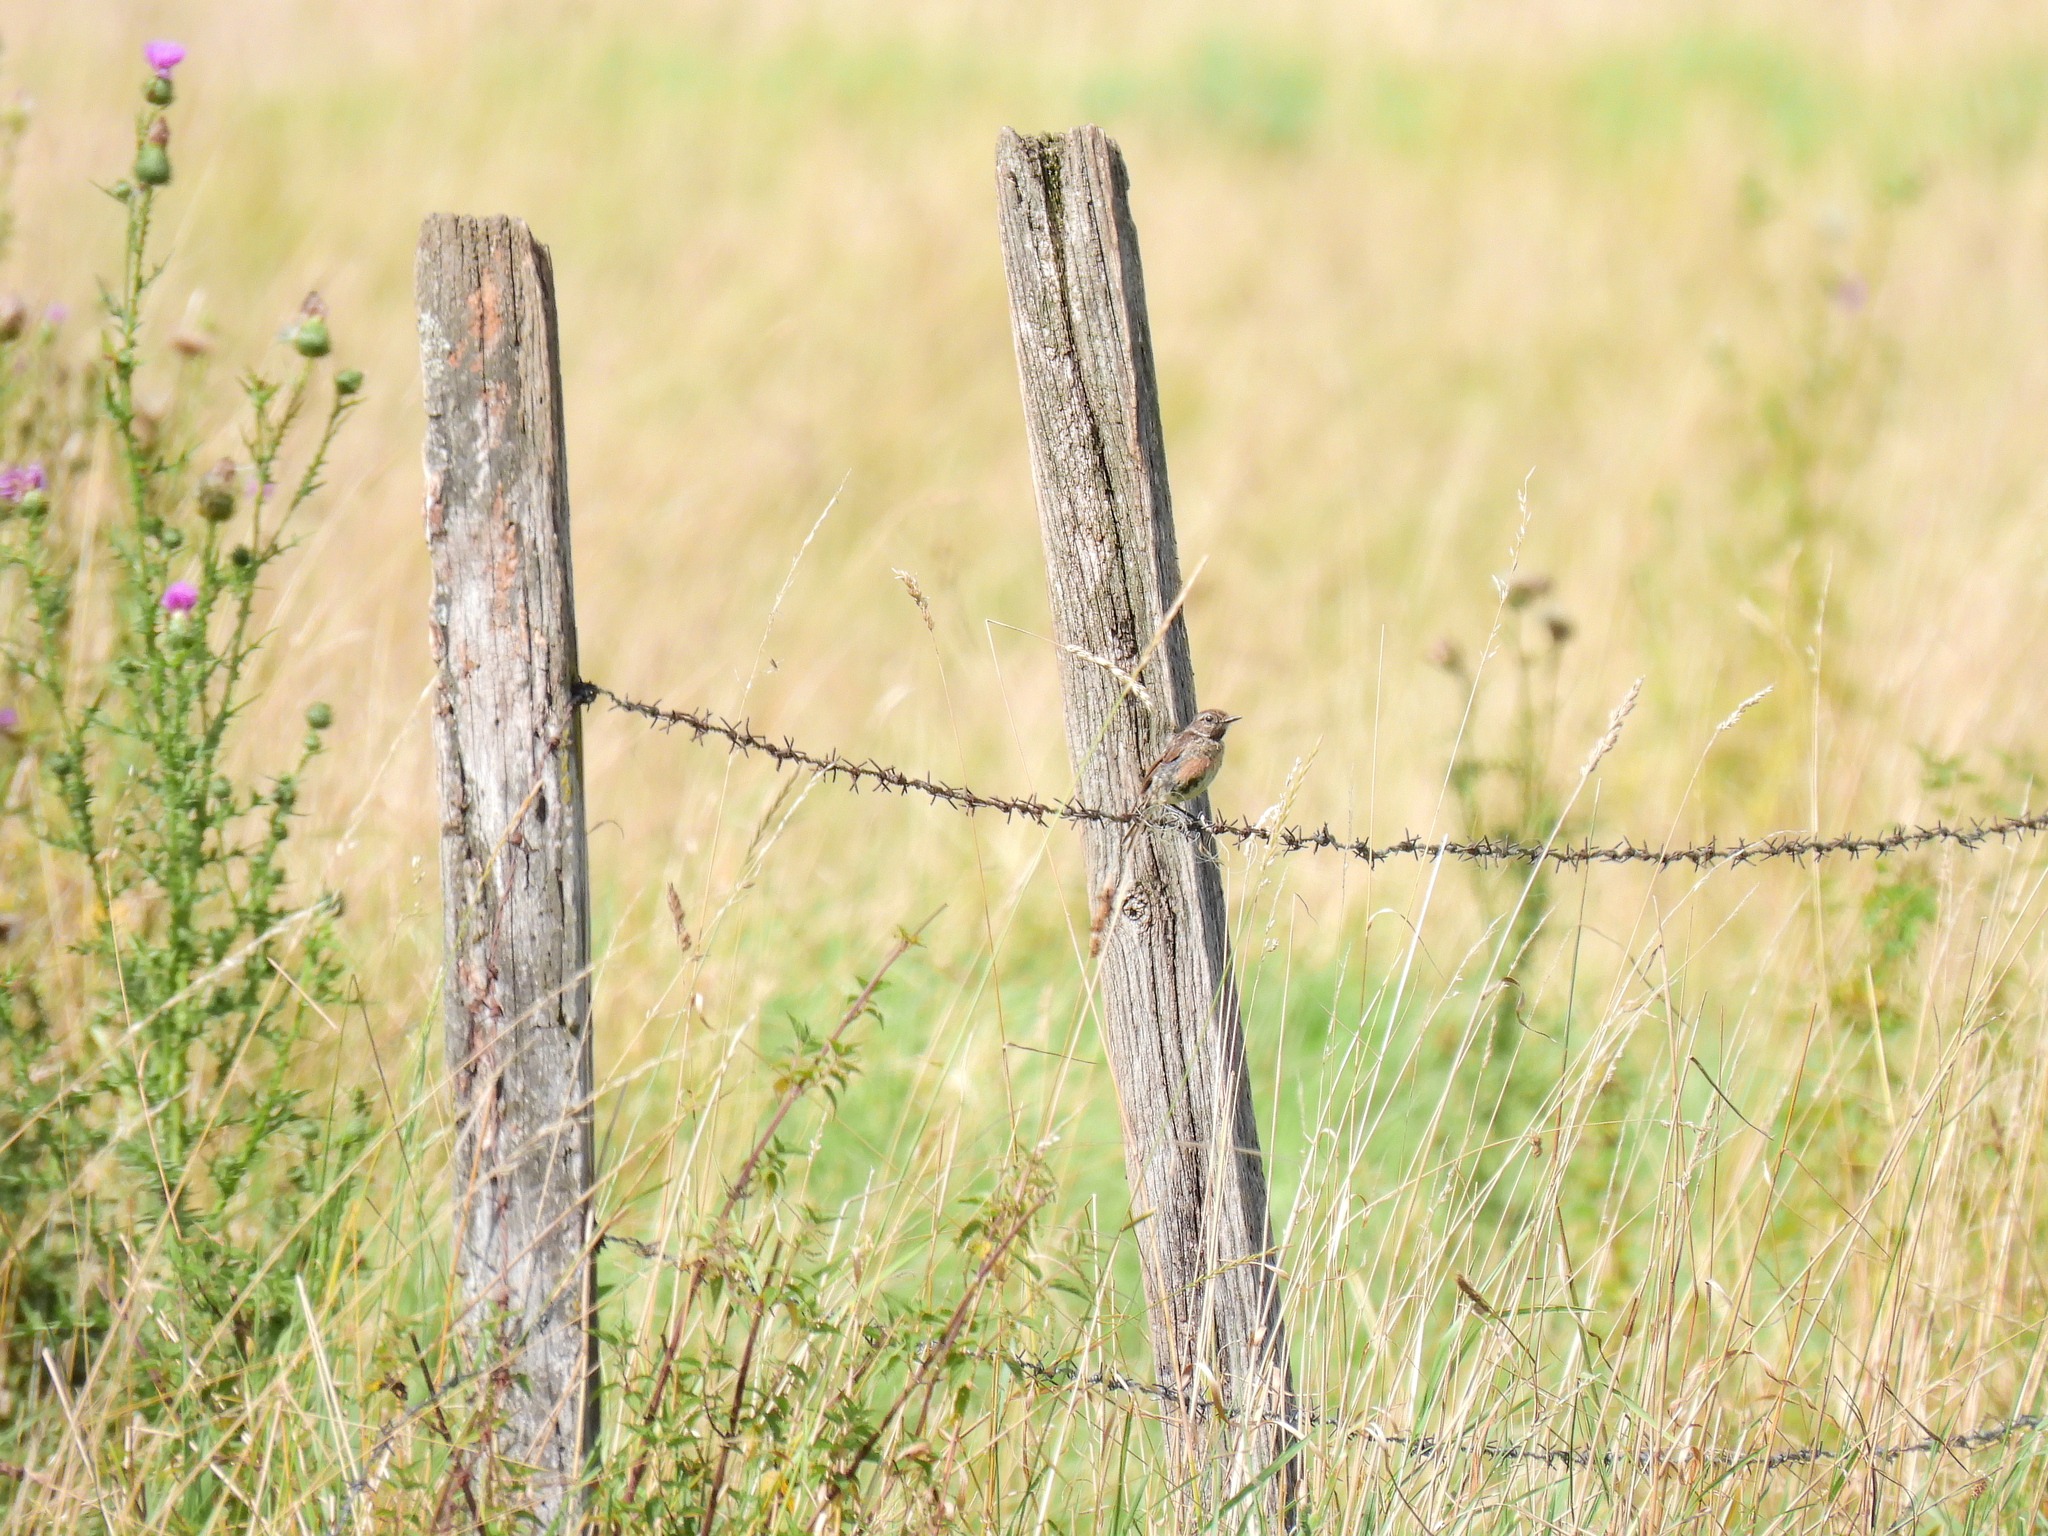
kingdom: Animalia
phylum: Chordata
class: Aves
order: Passeriformes
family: Muscicapidae
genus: Saxicola
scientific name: Saxicola rubicola
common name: European stonechat
